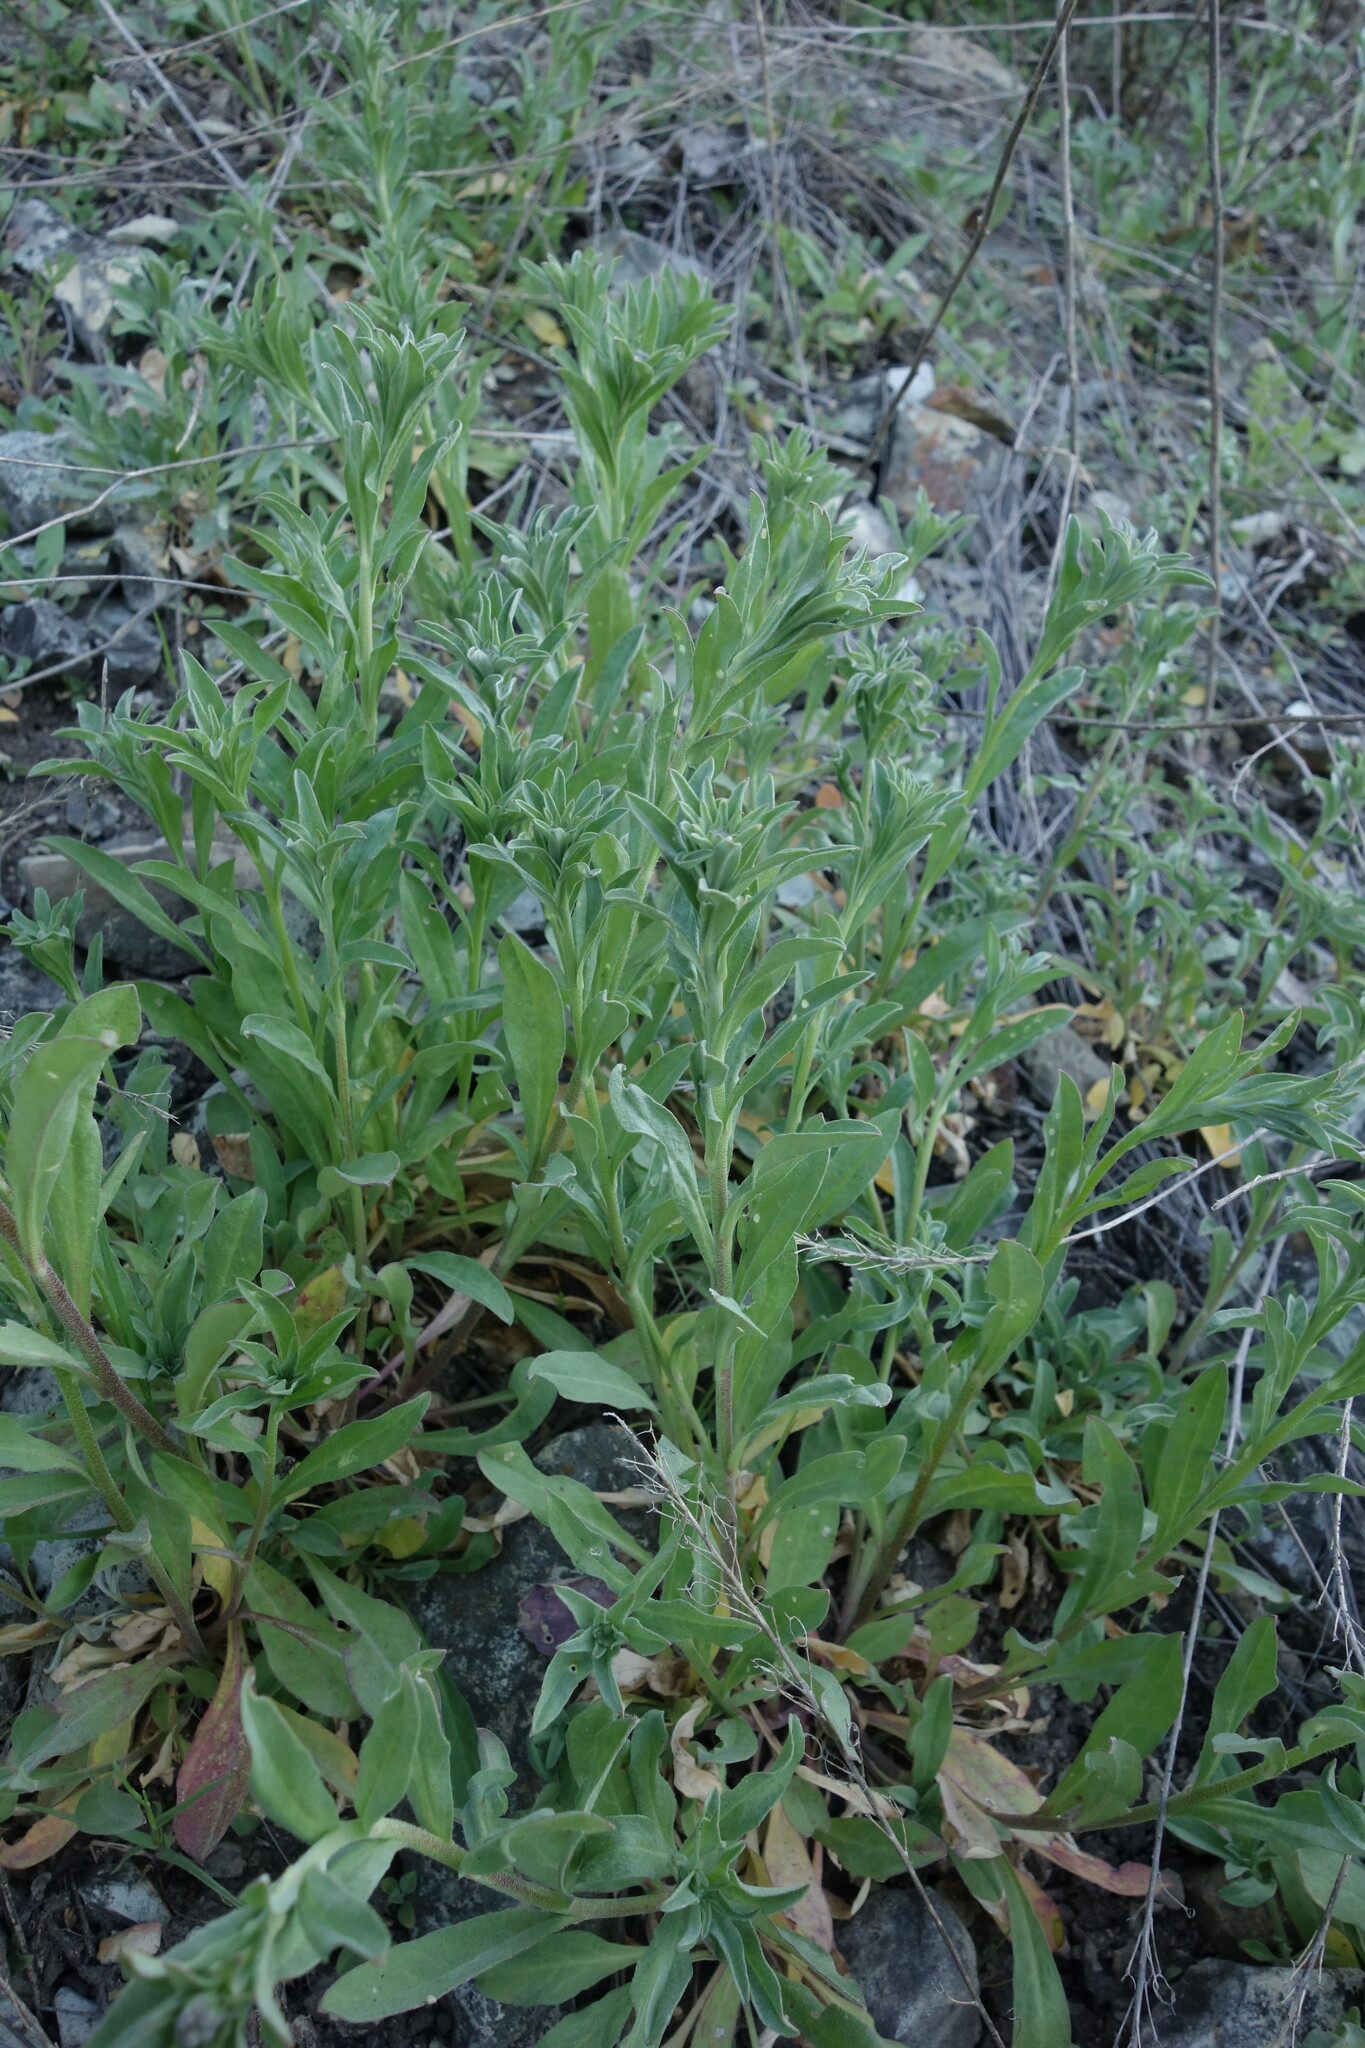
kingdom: Plantae
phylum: Tracheophyta
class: Magnoliopsida
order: Brassicales
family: Brassicaceae
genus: Berteroa
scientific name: Berteroa incana
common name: Hoary alison
